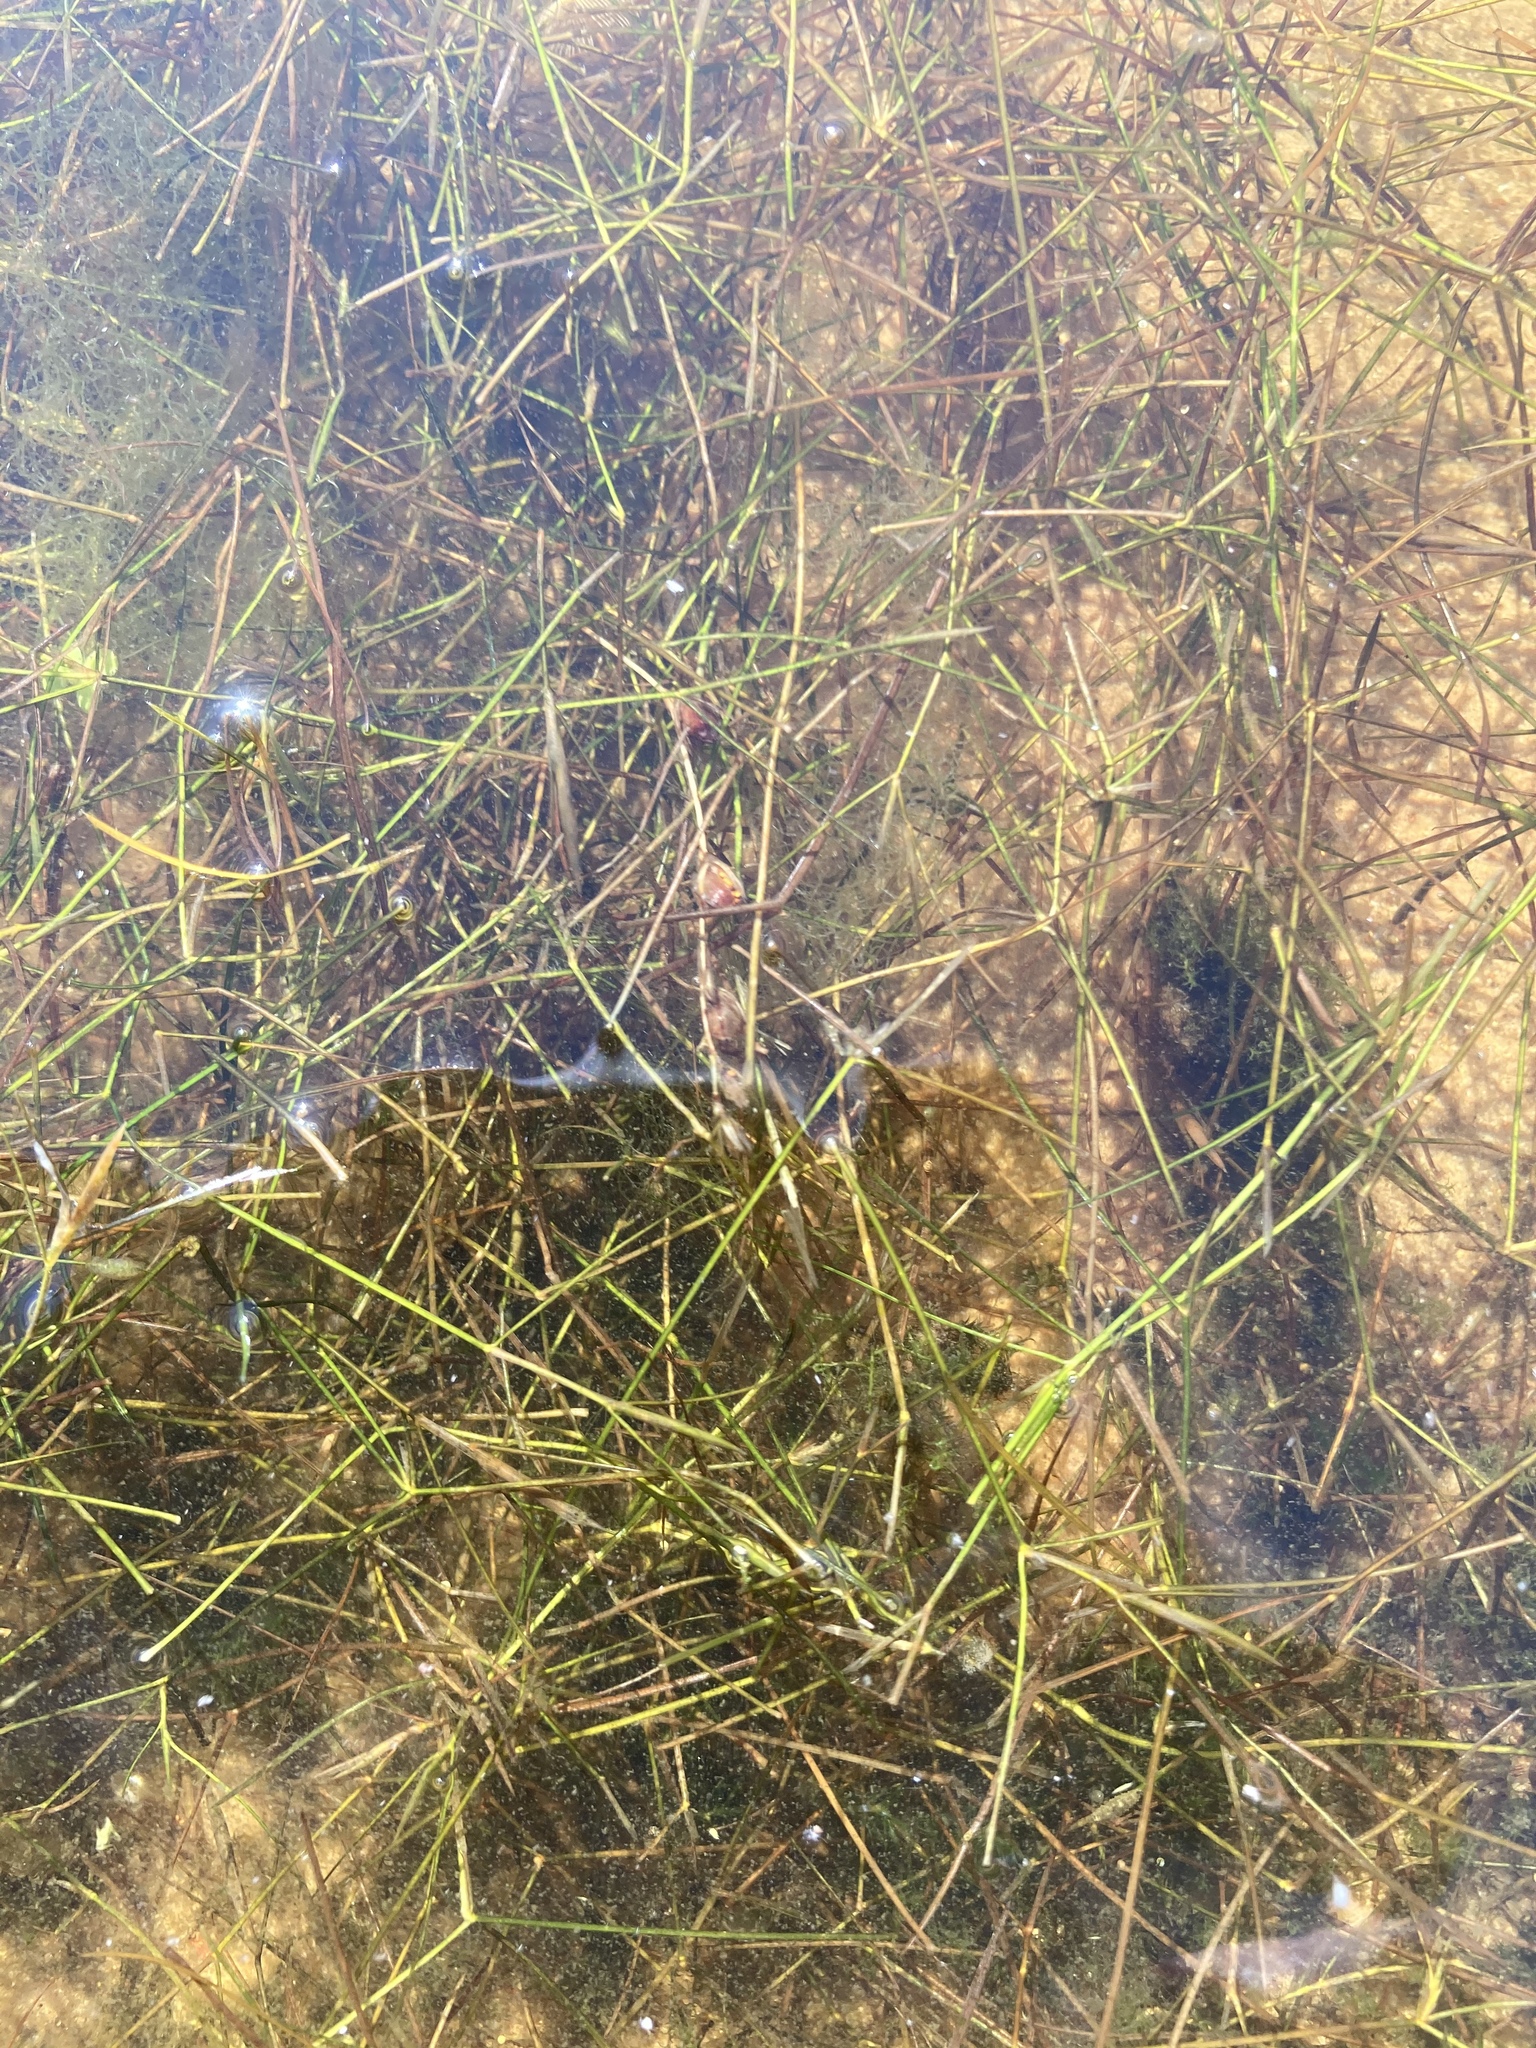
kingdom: Plantae
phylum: Tracheophyta
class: Liliopsida
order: Alismatales
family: Potamogetonaceae
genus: Potamogeton
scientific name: Potamogeton trichoides
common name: Hairlike pondweed
